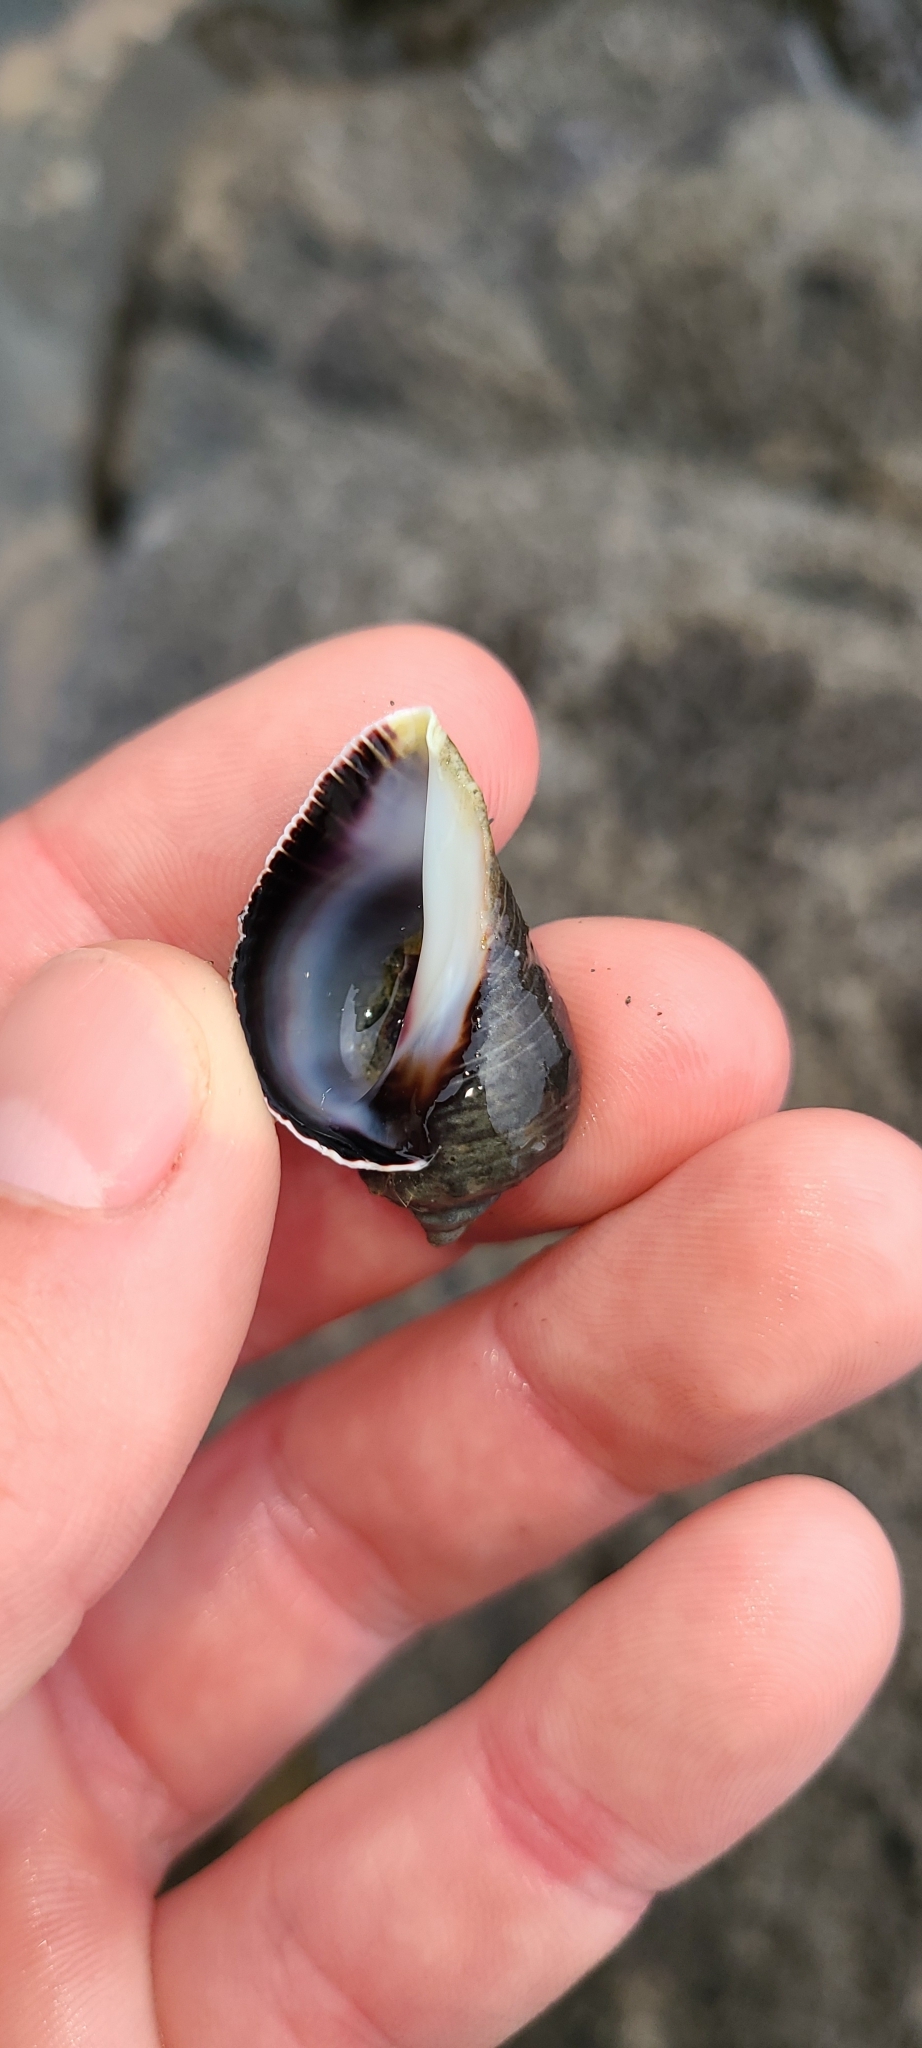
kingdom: Animalia
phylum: Mollusca
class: Gastropoda
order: Neogastropoda
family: Muricidae
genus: Haustrum
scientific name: Haustrum haustorium
